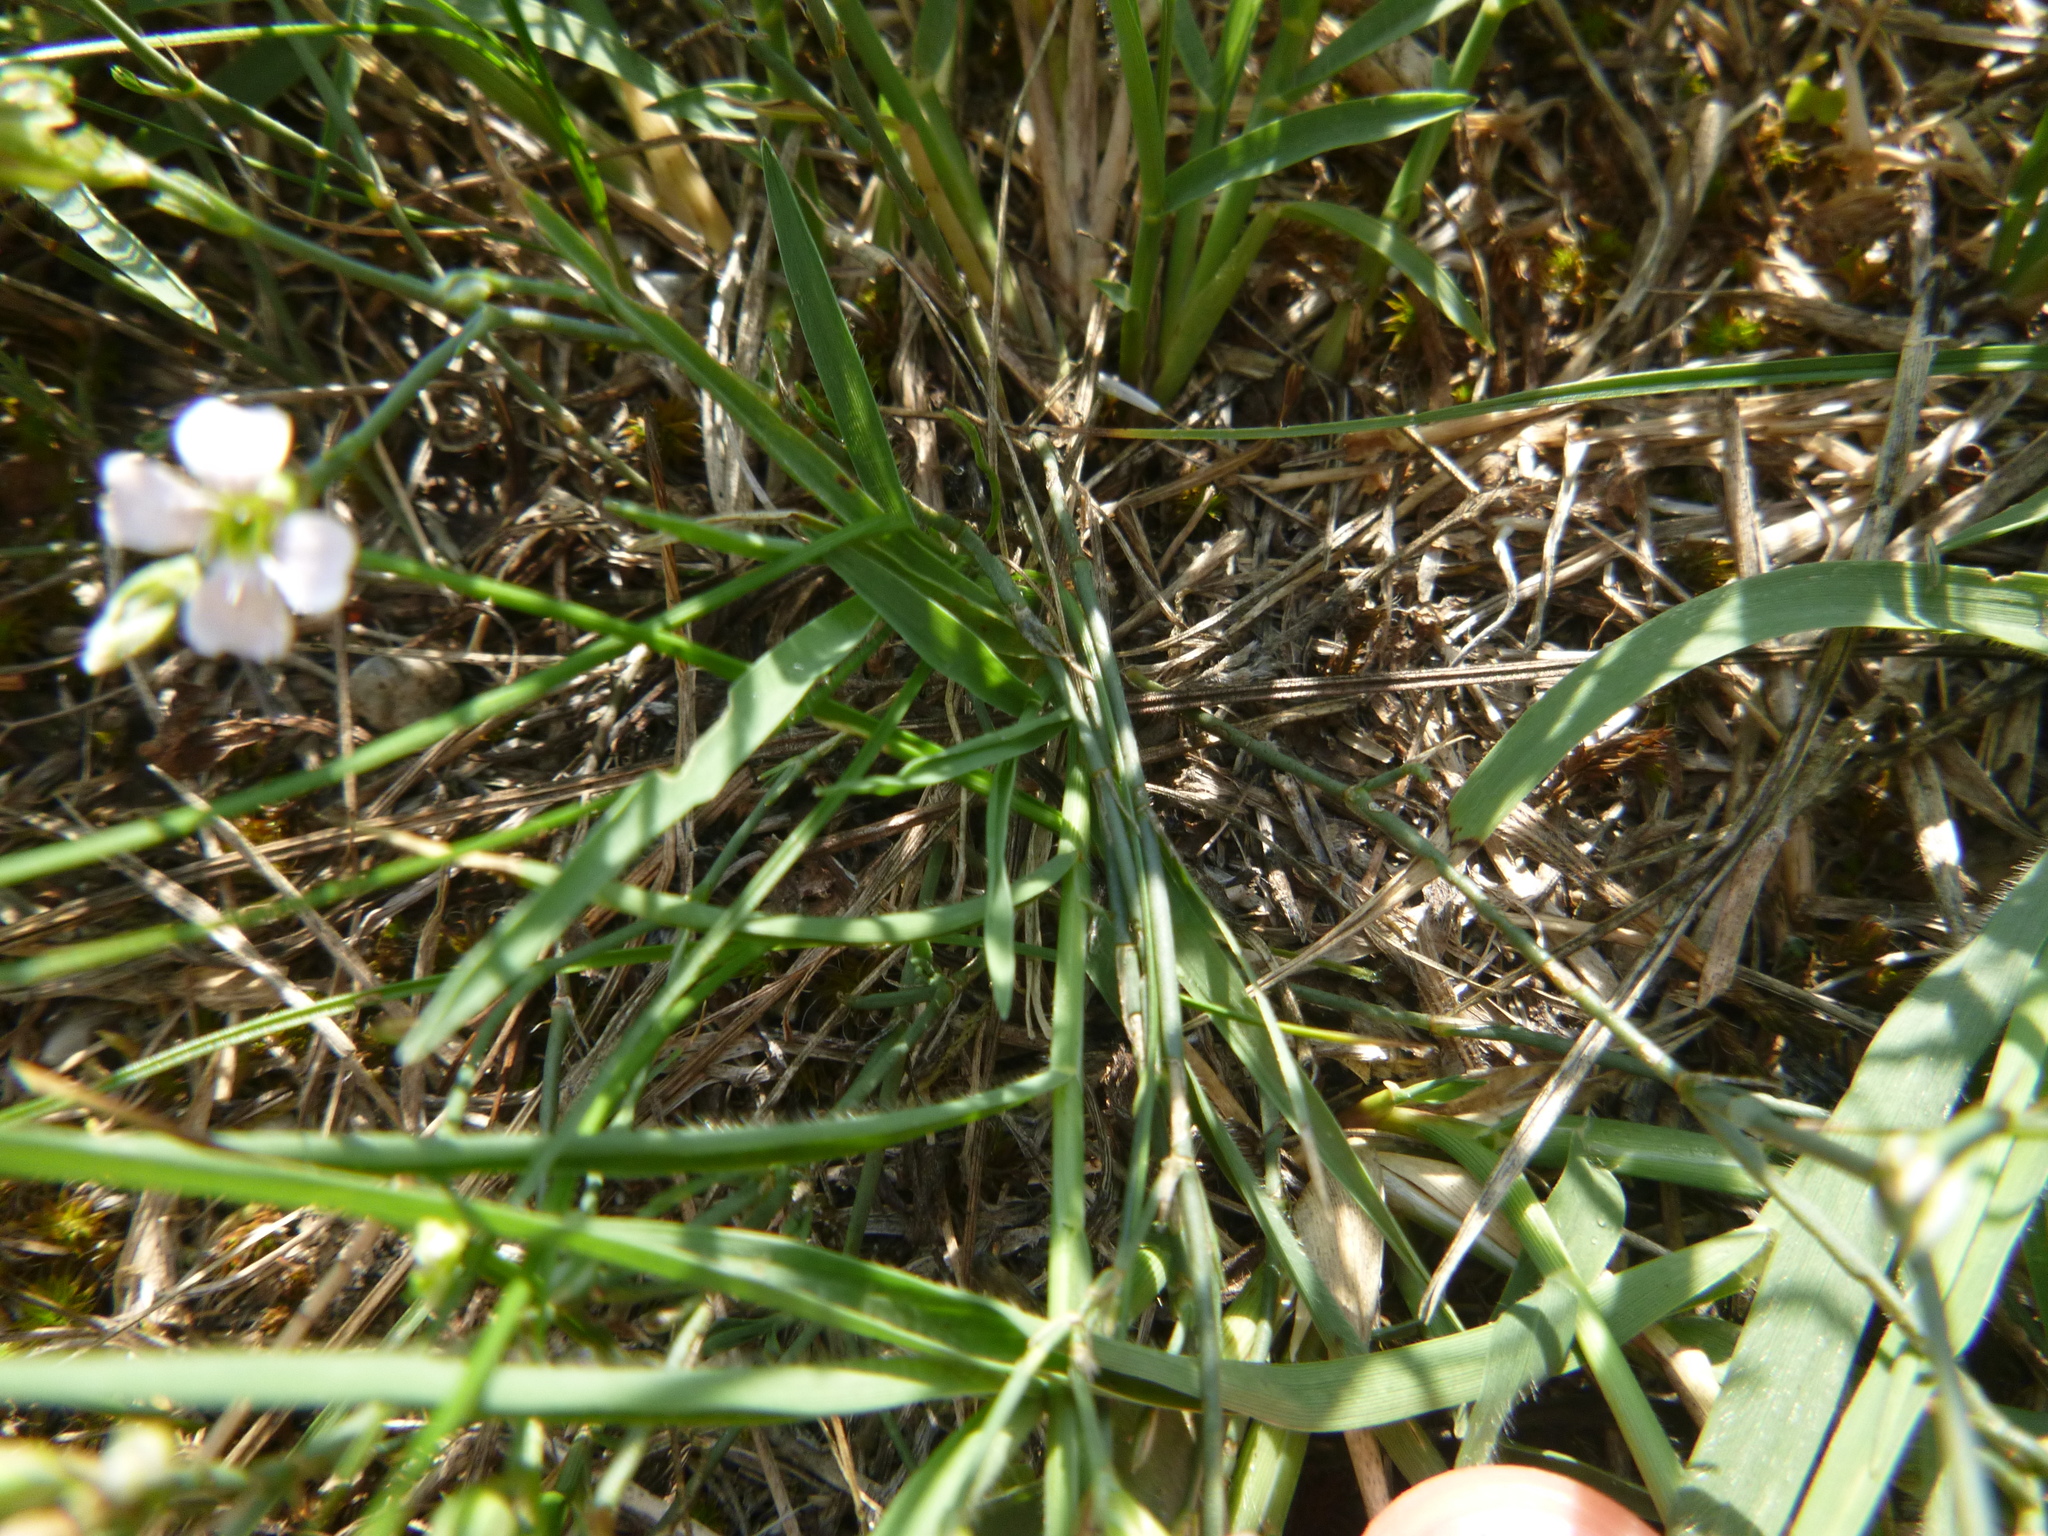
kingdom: Plantae
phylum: Tracheophyta
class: Magnoliopsida
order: Caryophyllales
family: Caryophyllaceae
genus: Petrorhagia
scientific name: Petrorhagia saxifraga
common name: Tunicflower
